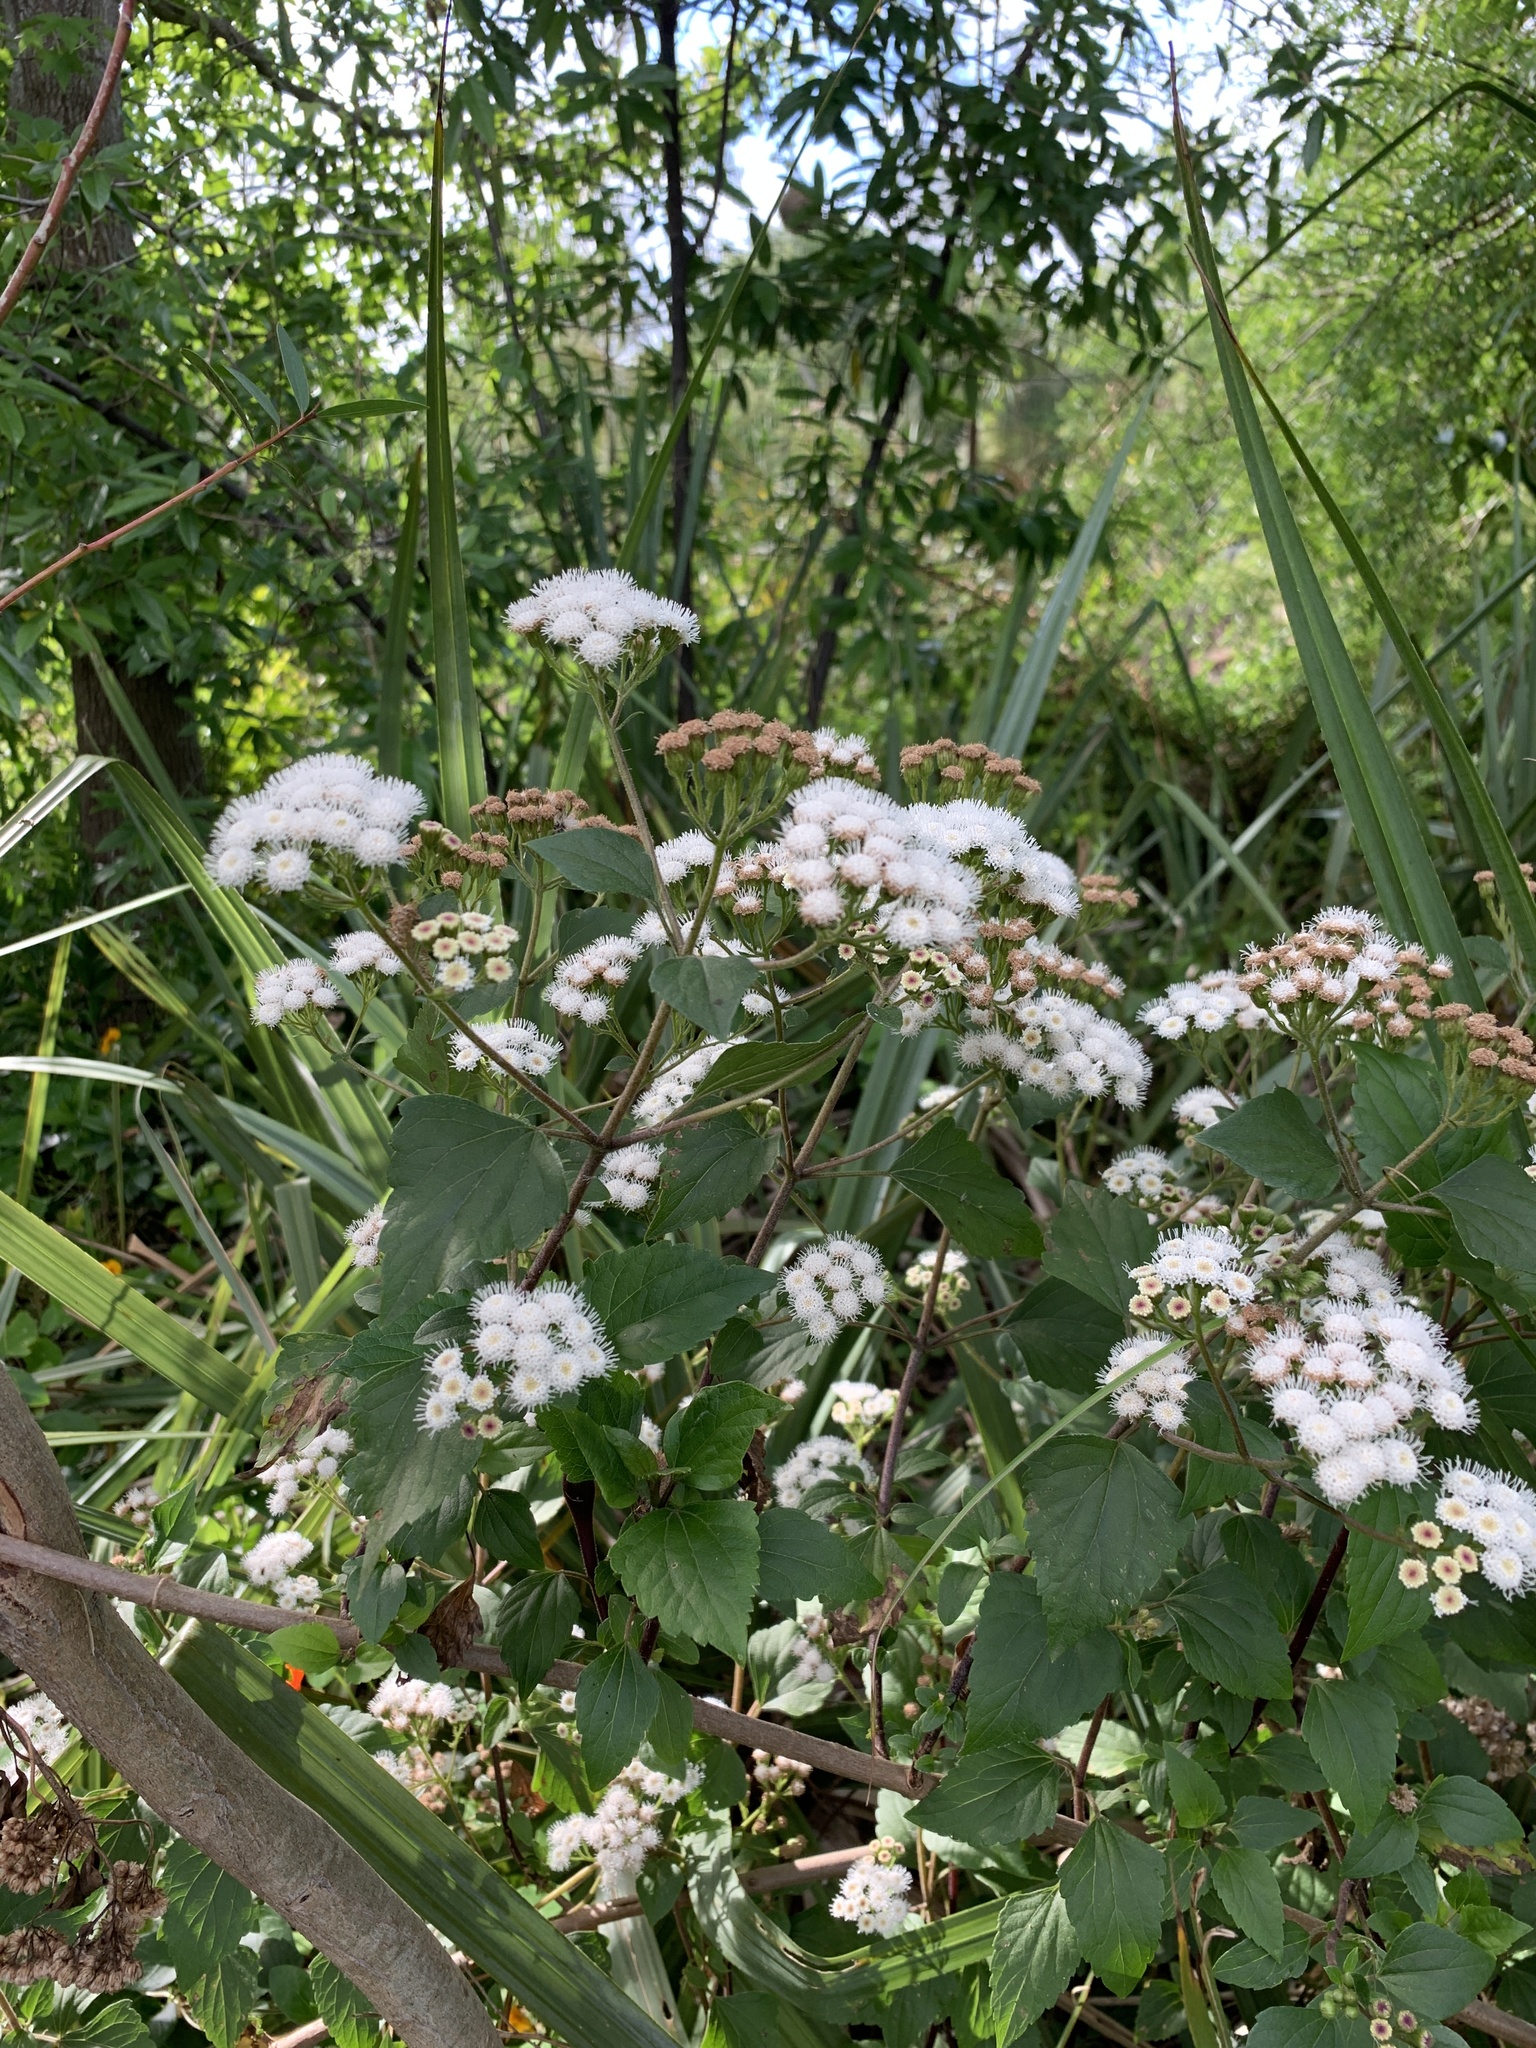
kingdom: Plantae
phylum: Tracheophyta
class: Magnoliopsida
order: Asterales
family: Asteraceae
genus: Ageratina
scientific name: Ageratina adenophora
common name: Sticky snakeroot
